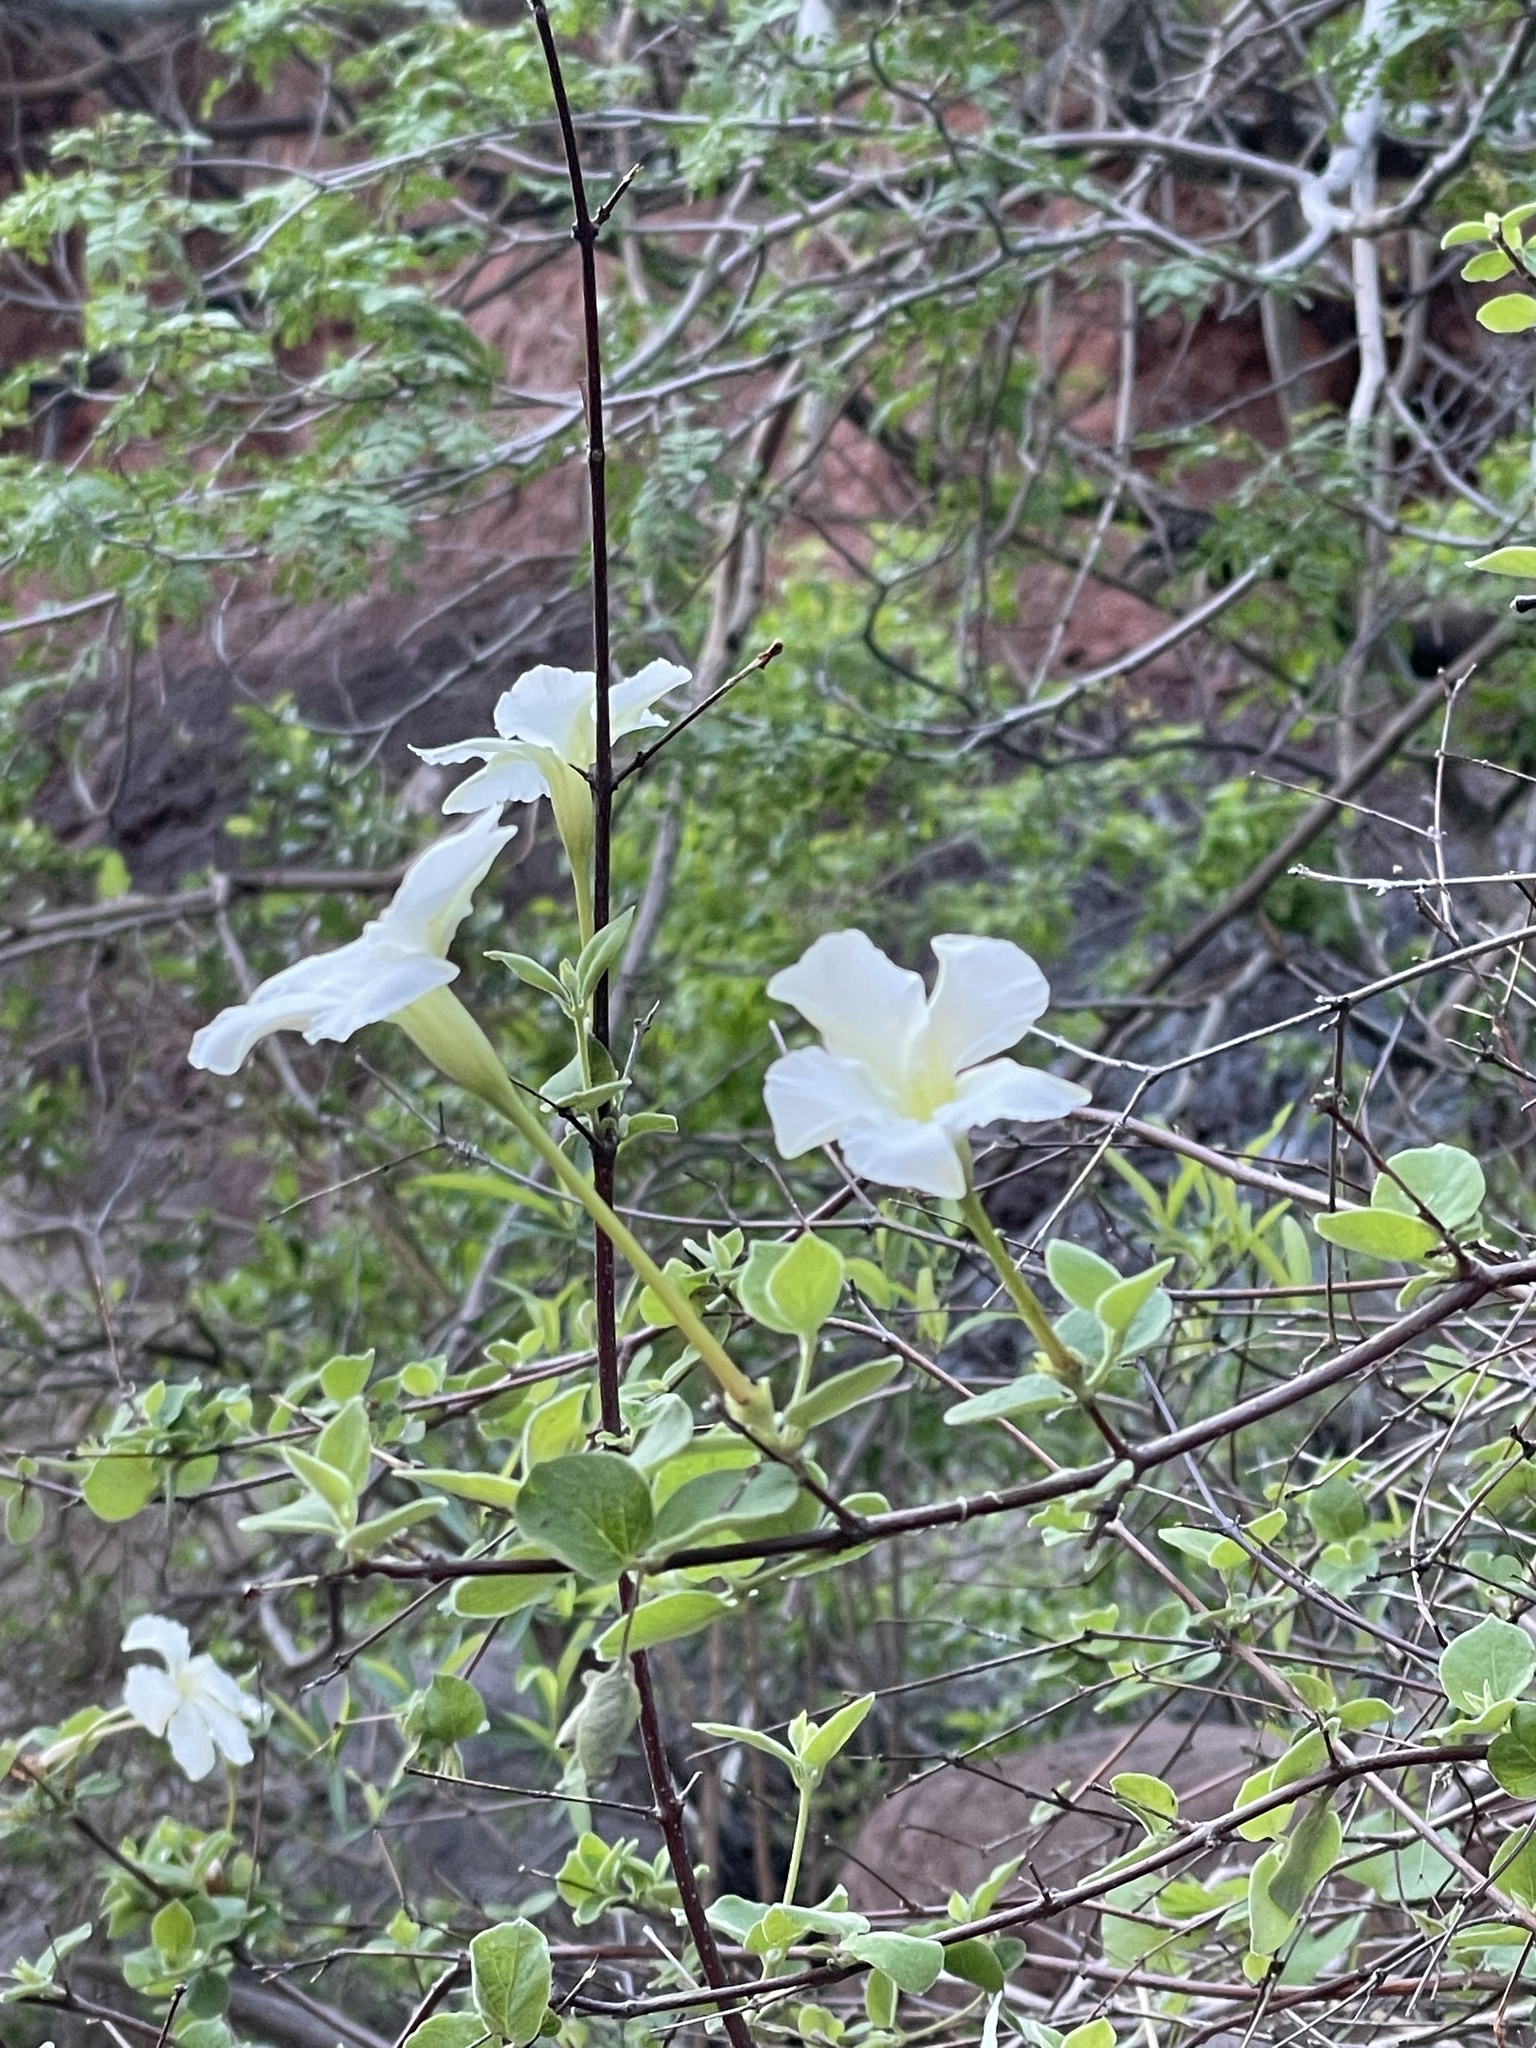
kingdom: Plantae
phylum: Tracheophyta
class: Magnoliopsida
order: Gentianales
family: Apocynaceae
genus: Mandevilla
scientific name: Mandevilla hesperia
